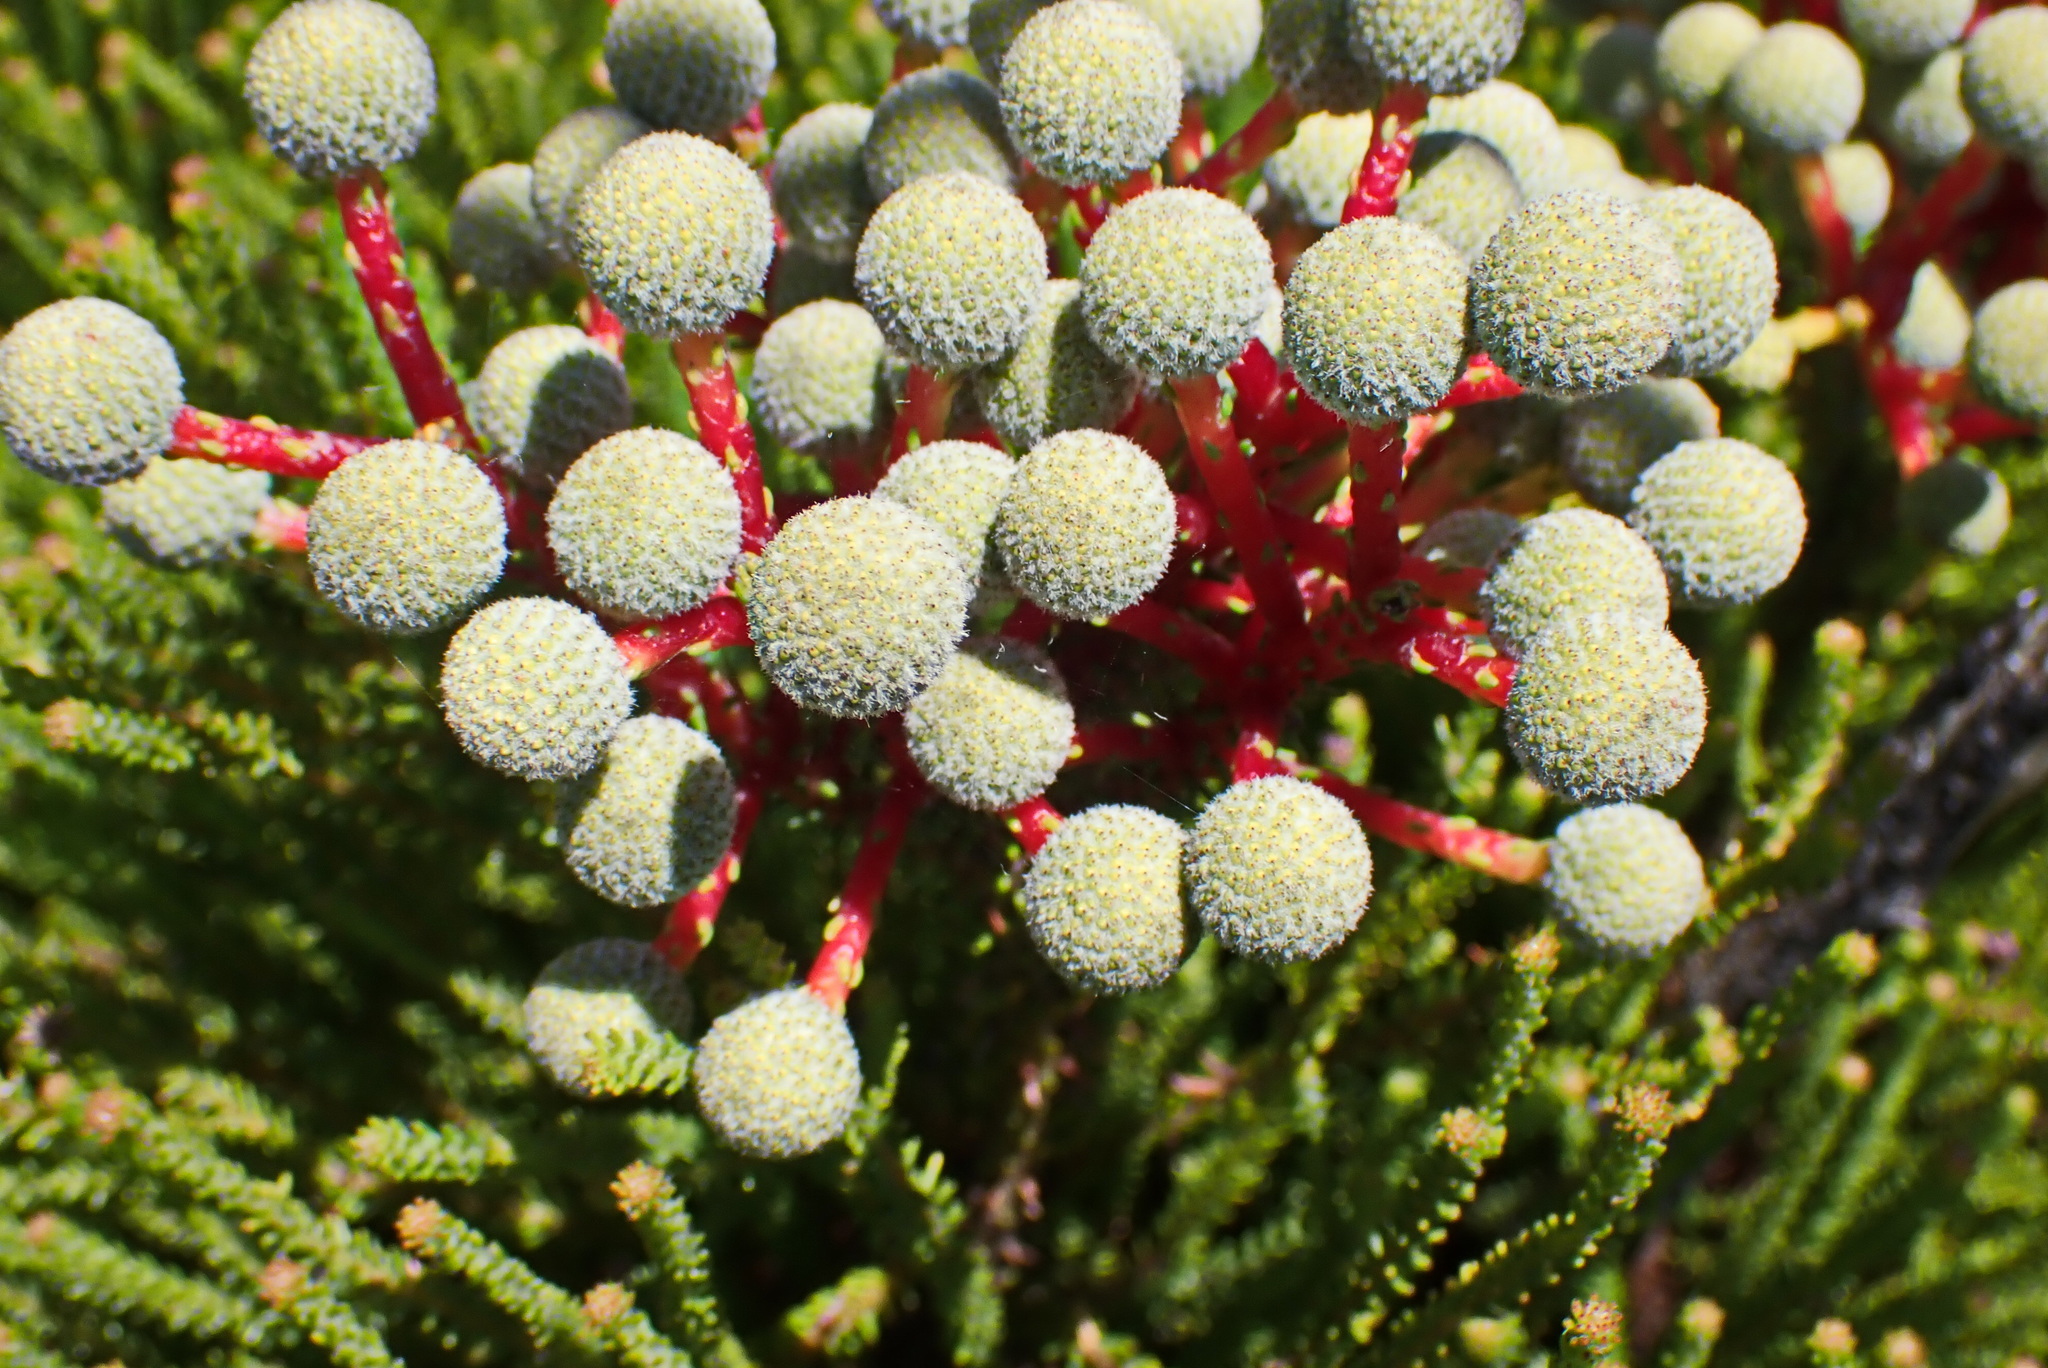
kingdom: Plantae
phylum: Tracheophyta
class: Magnoliopsida
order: Bruniales
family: Bruniaceae
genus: Berzelia
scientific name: Berzelia intermedia
